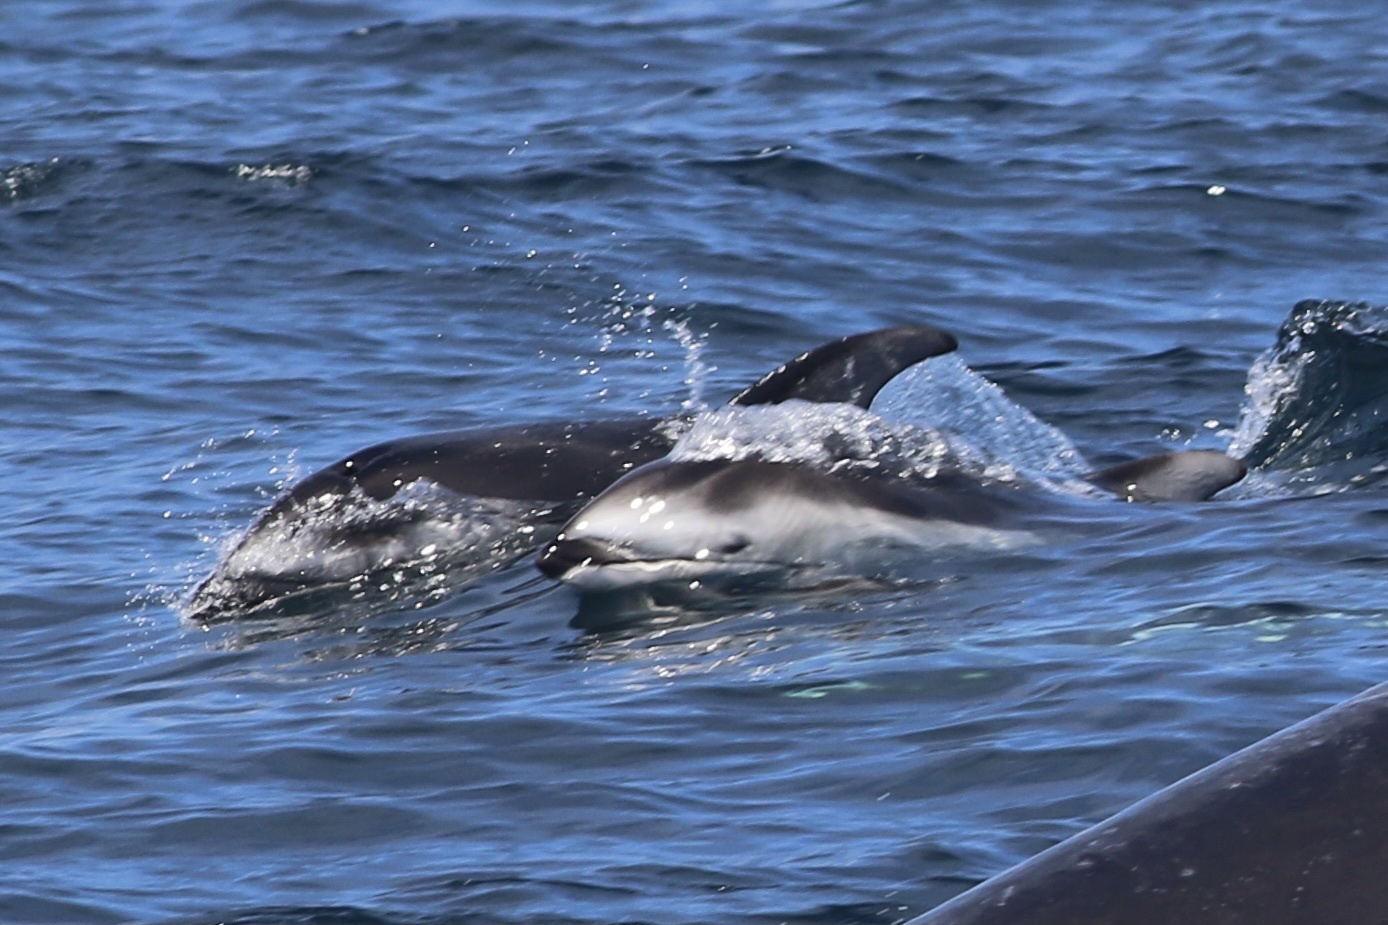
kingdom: Animalia
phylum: Chordata
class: Mammalia
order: Cetacea
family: Delphinidae
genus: Lagenorhynchus
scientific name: Lagenorhynchus obliquidens
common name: Pacific white-sided dolphin
